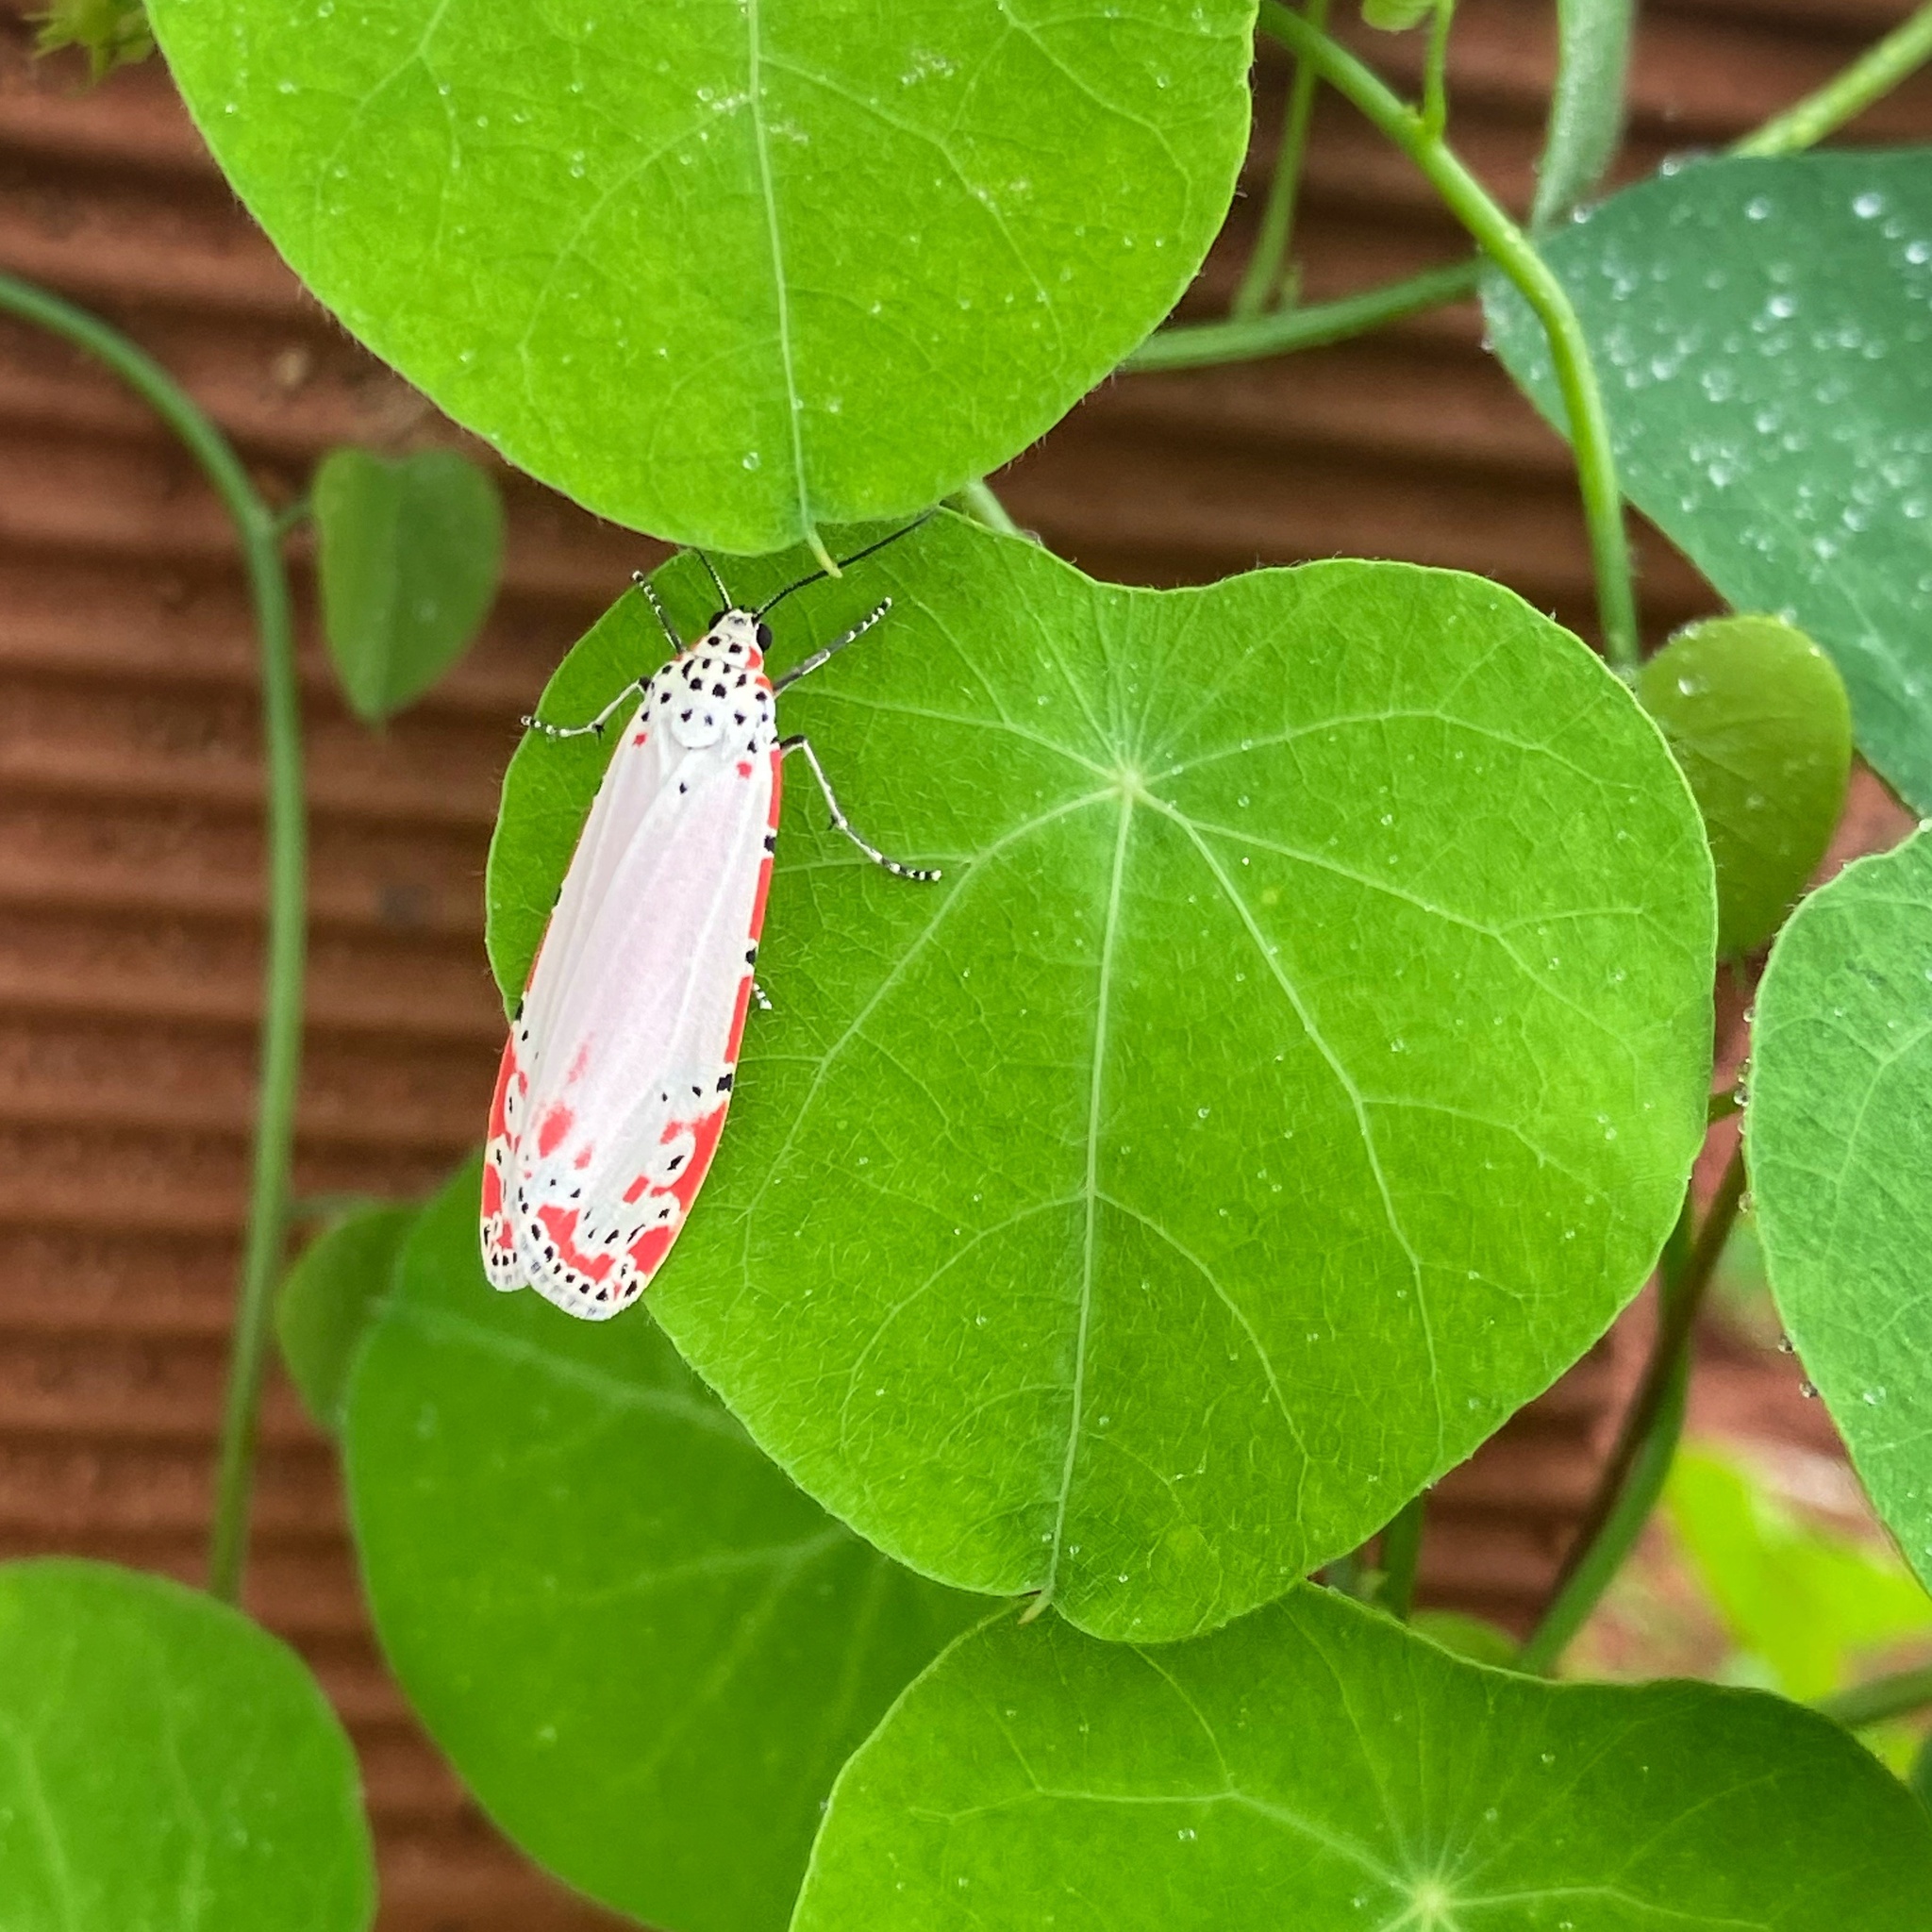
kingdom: Animalia
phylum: Arthropoda
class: Insecta
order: Lepidoptera
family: Erebidae
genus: Utetheisa
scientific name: Utetheisa ornatrix
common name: Beautiful utetheisa
